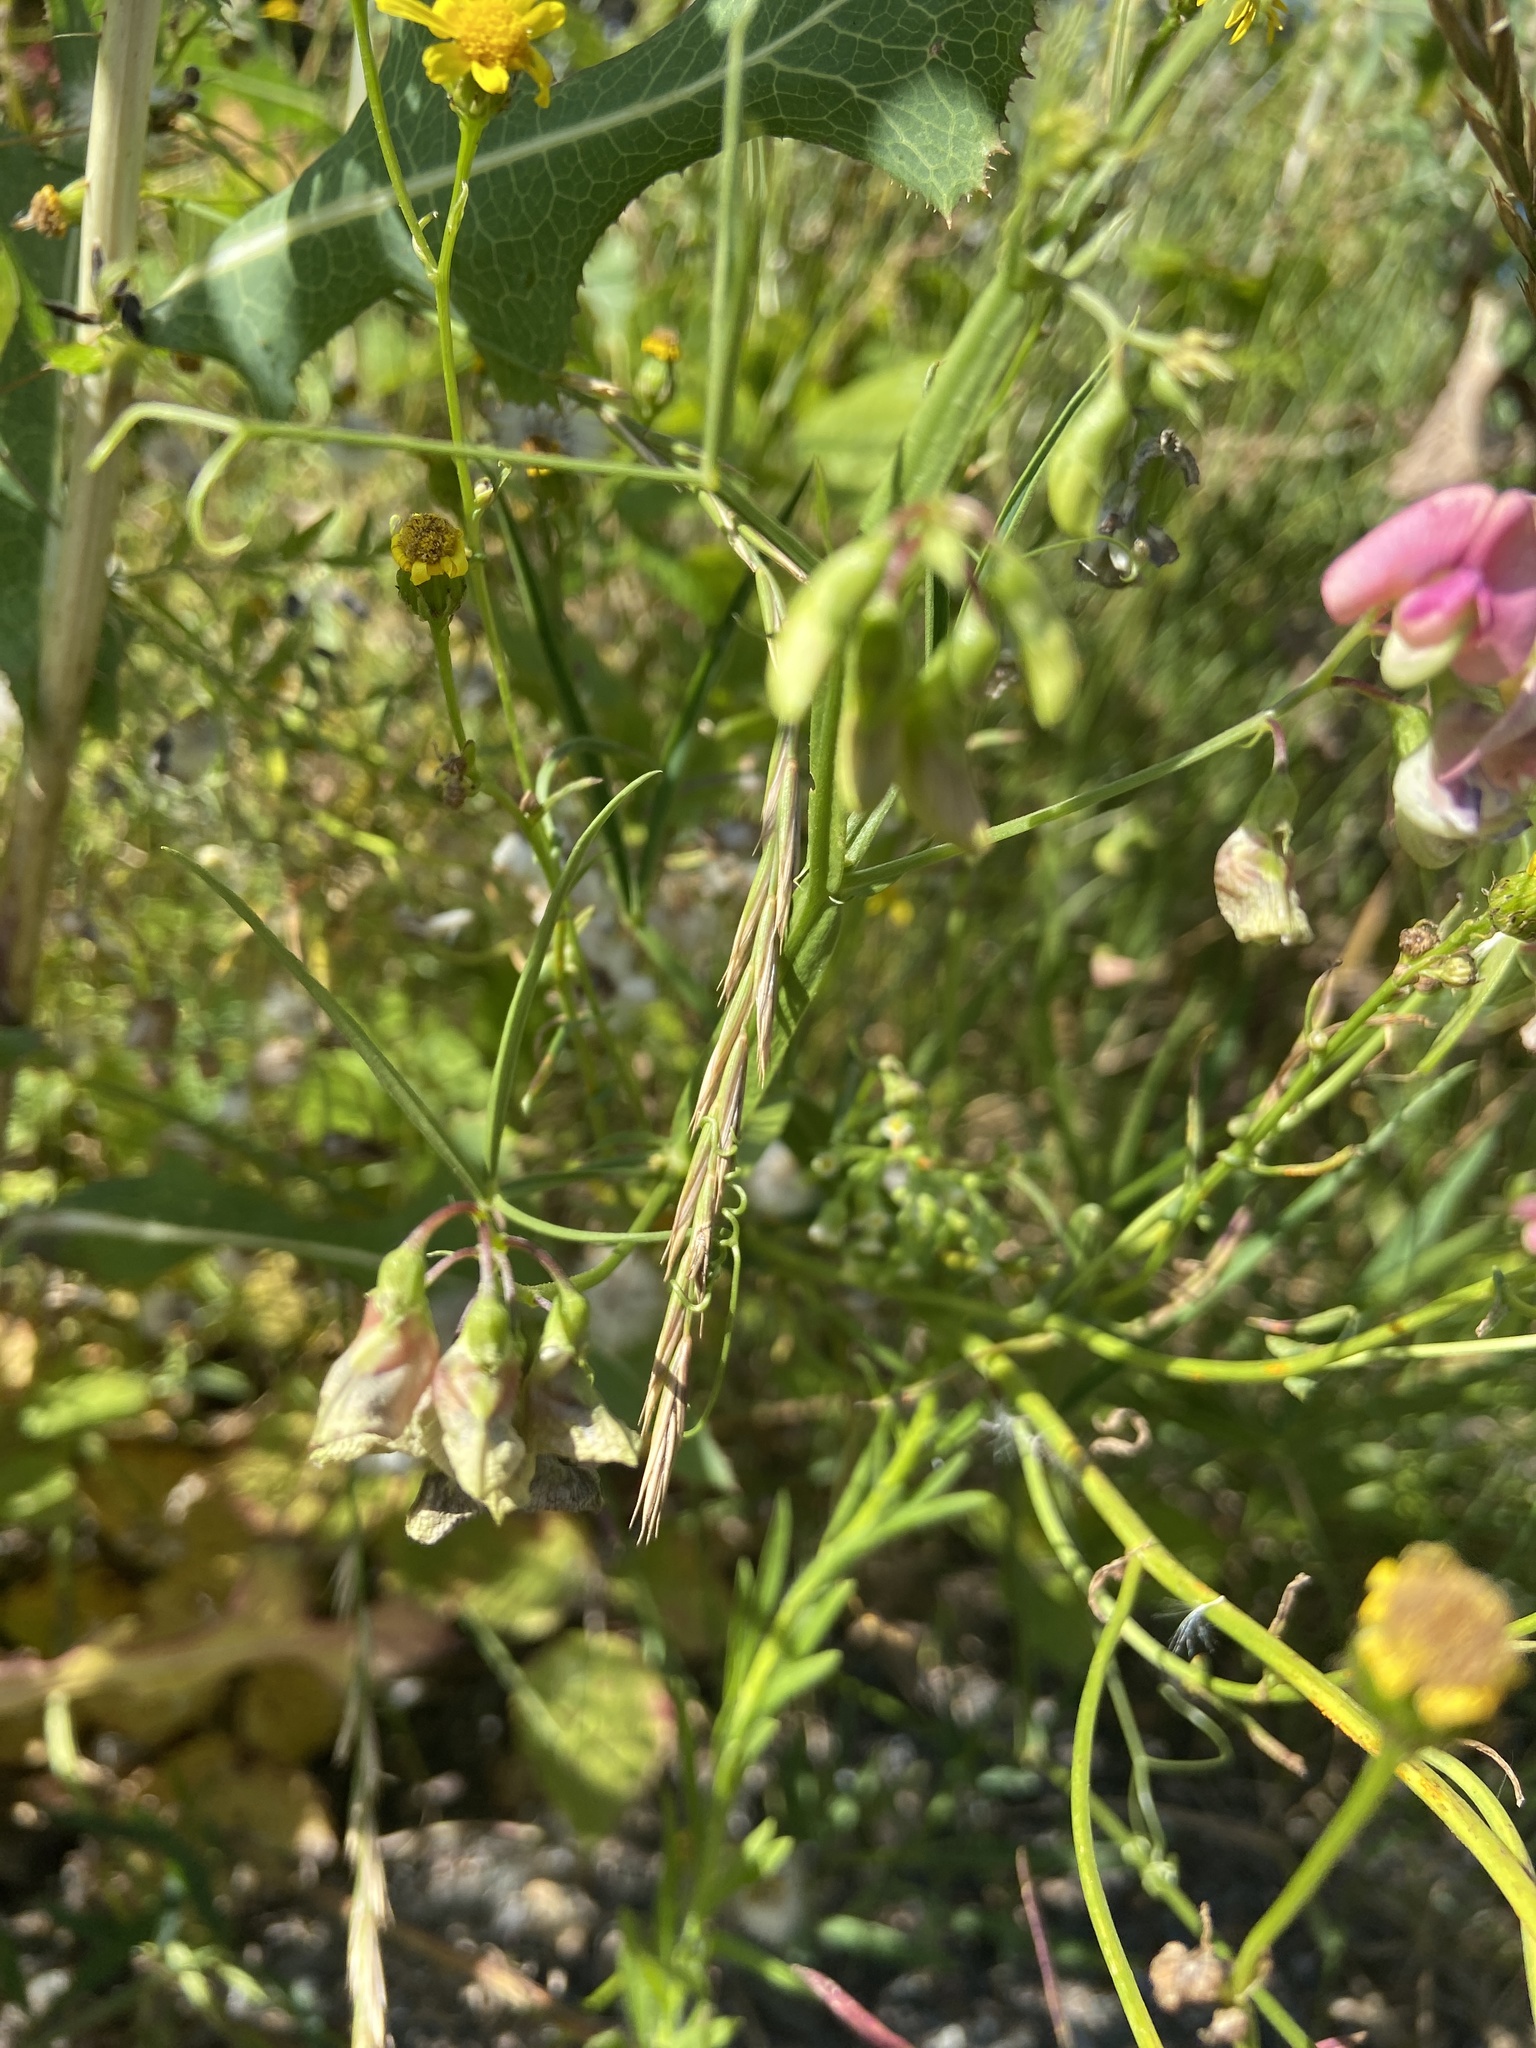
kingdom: Plantae
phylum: Tracheophyta
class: Magnoliopsida
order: Fabales
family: Fabaceae
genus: Lathyrus
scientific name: Lathyrus sylvestris
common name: Flat pea
